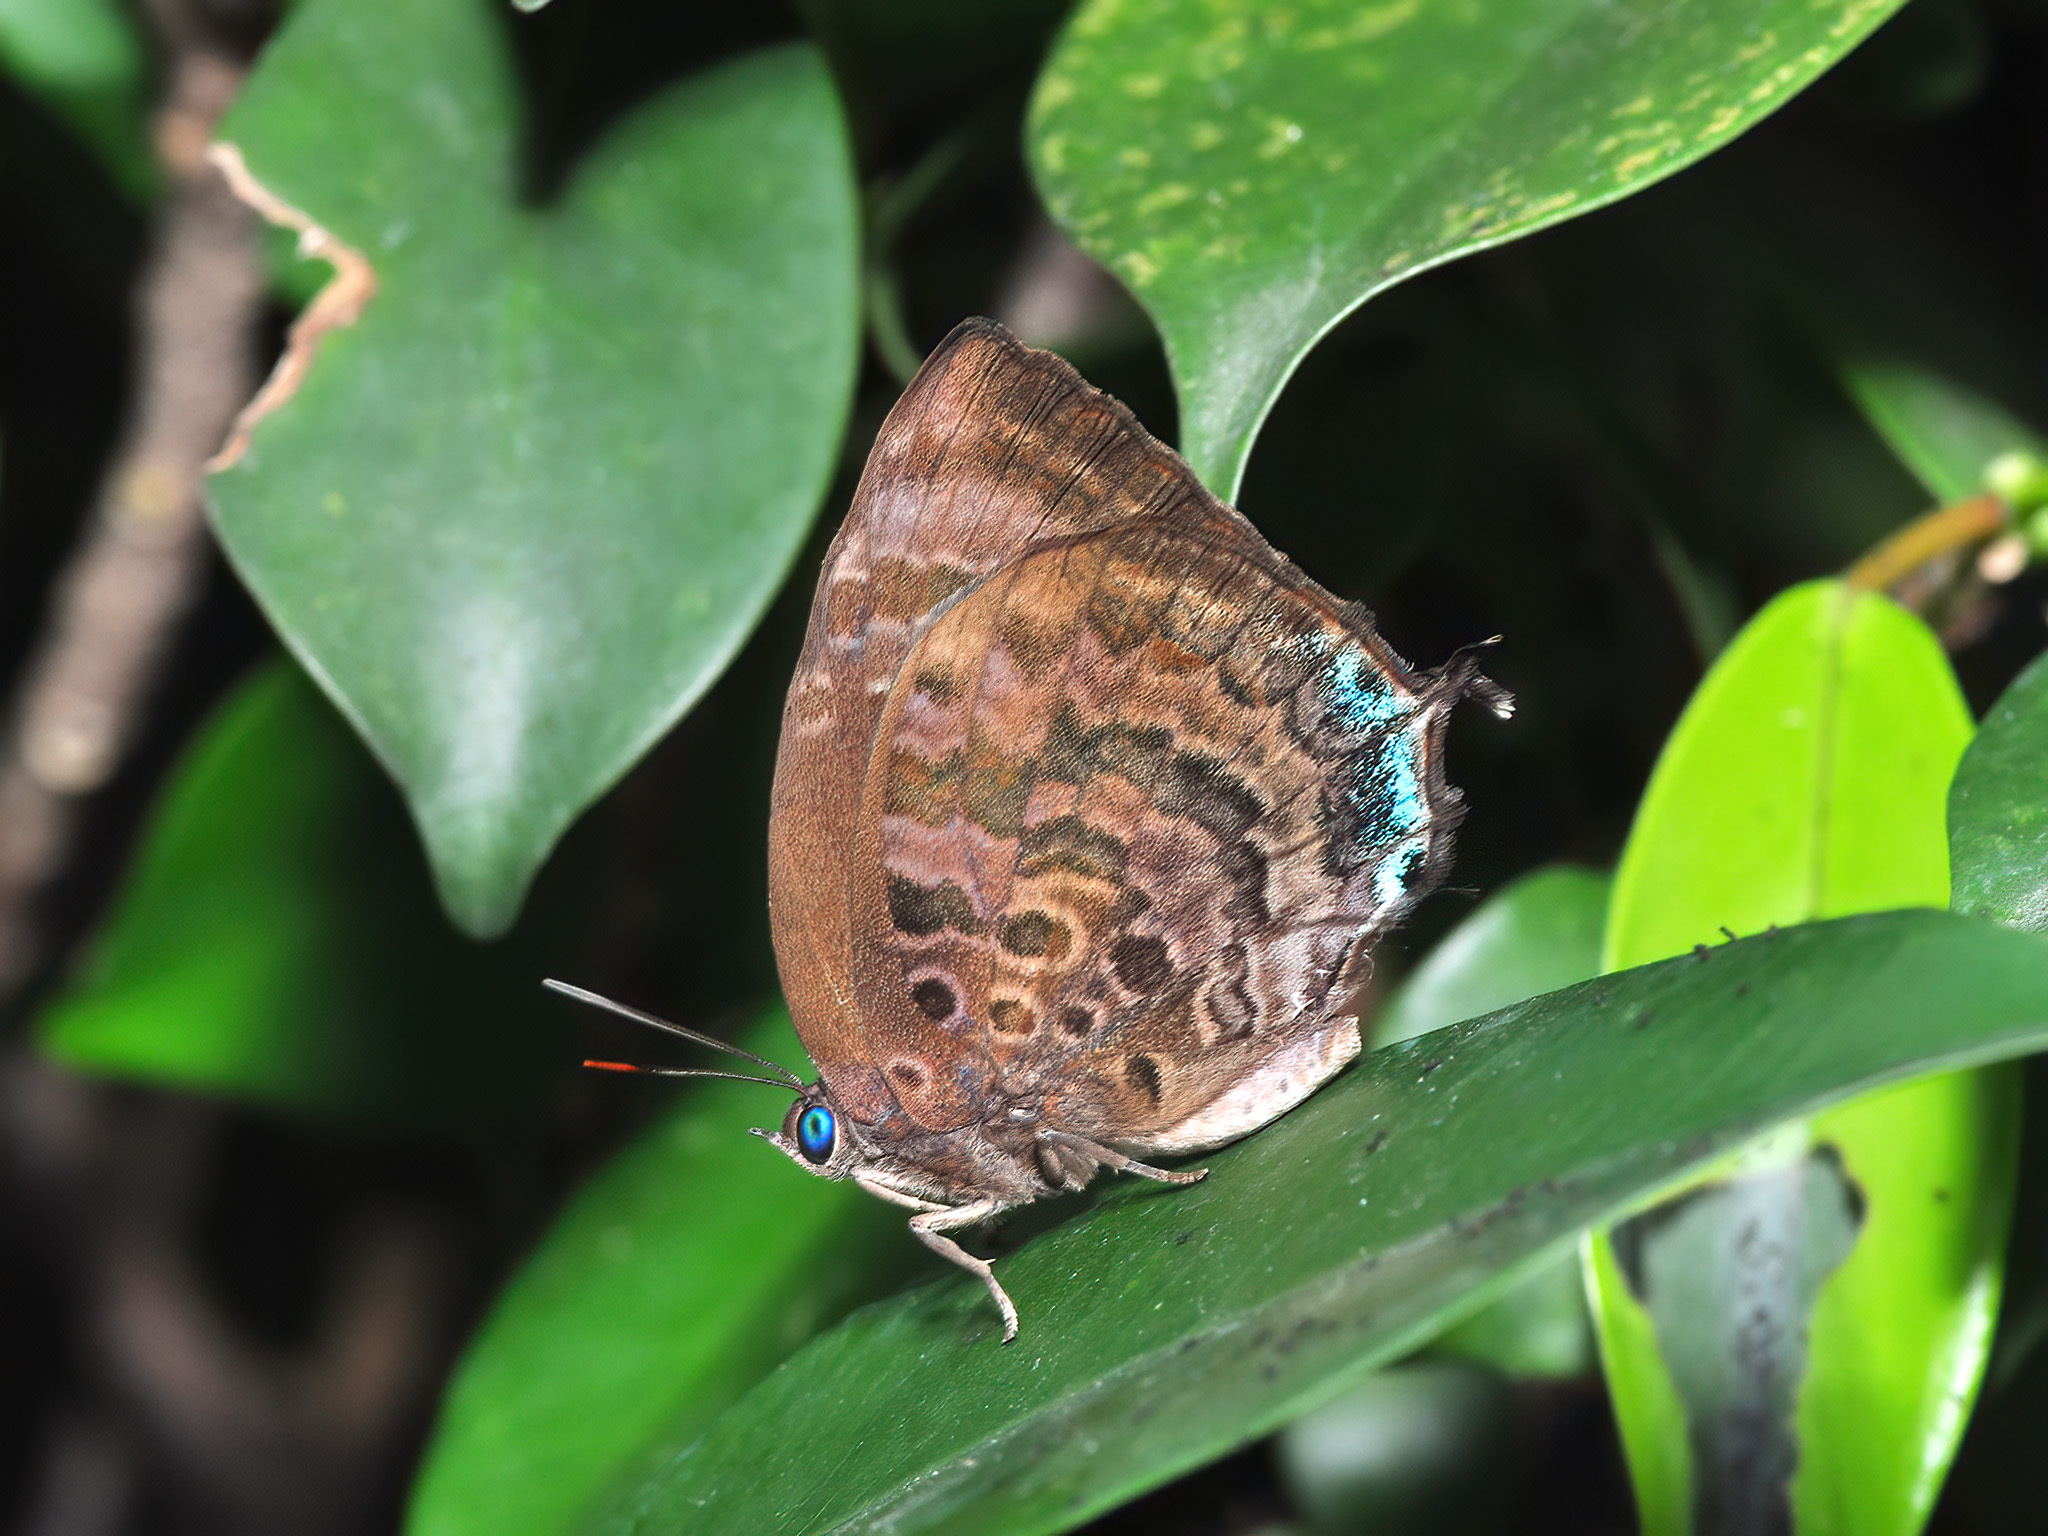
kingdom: Animalia
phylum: Arthropoda
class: Insecta
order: Lepidoptera
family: Lycaenidae
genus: Arhopala
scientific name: Arhopala centaurus
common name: Dull oak-blue
